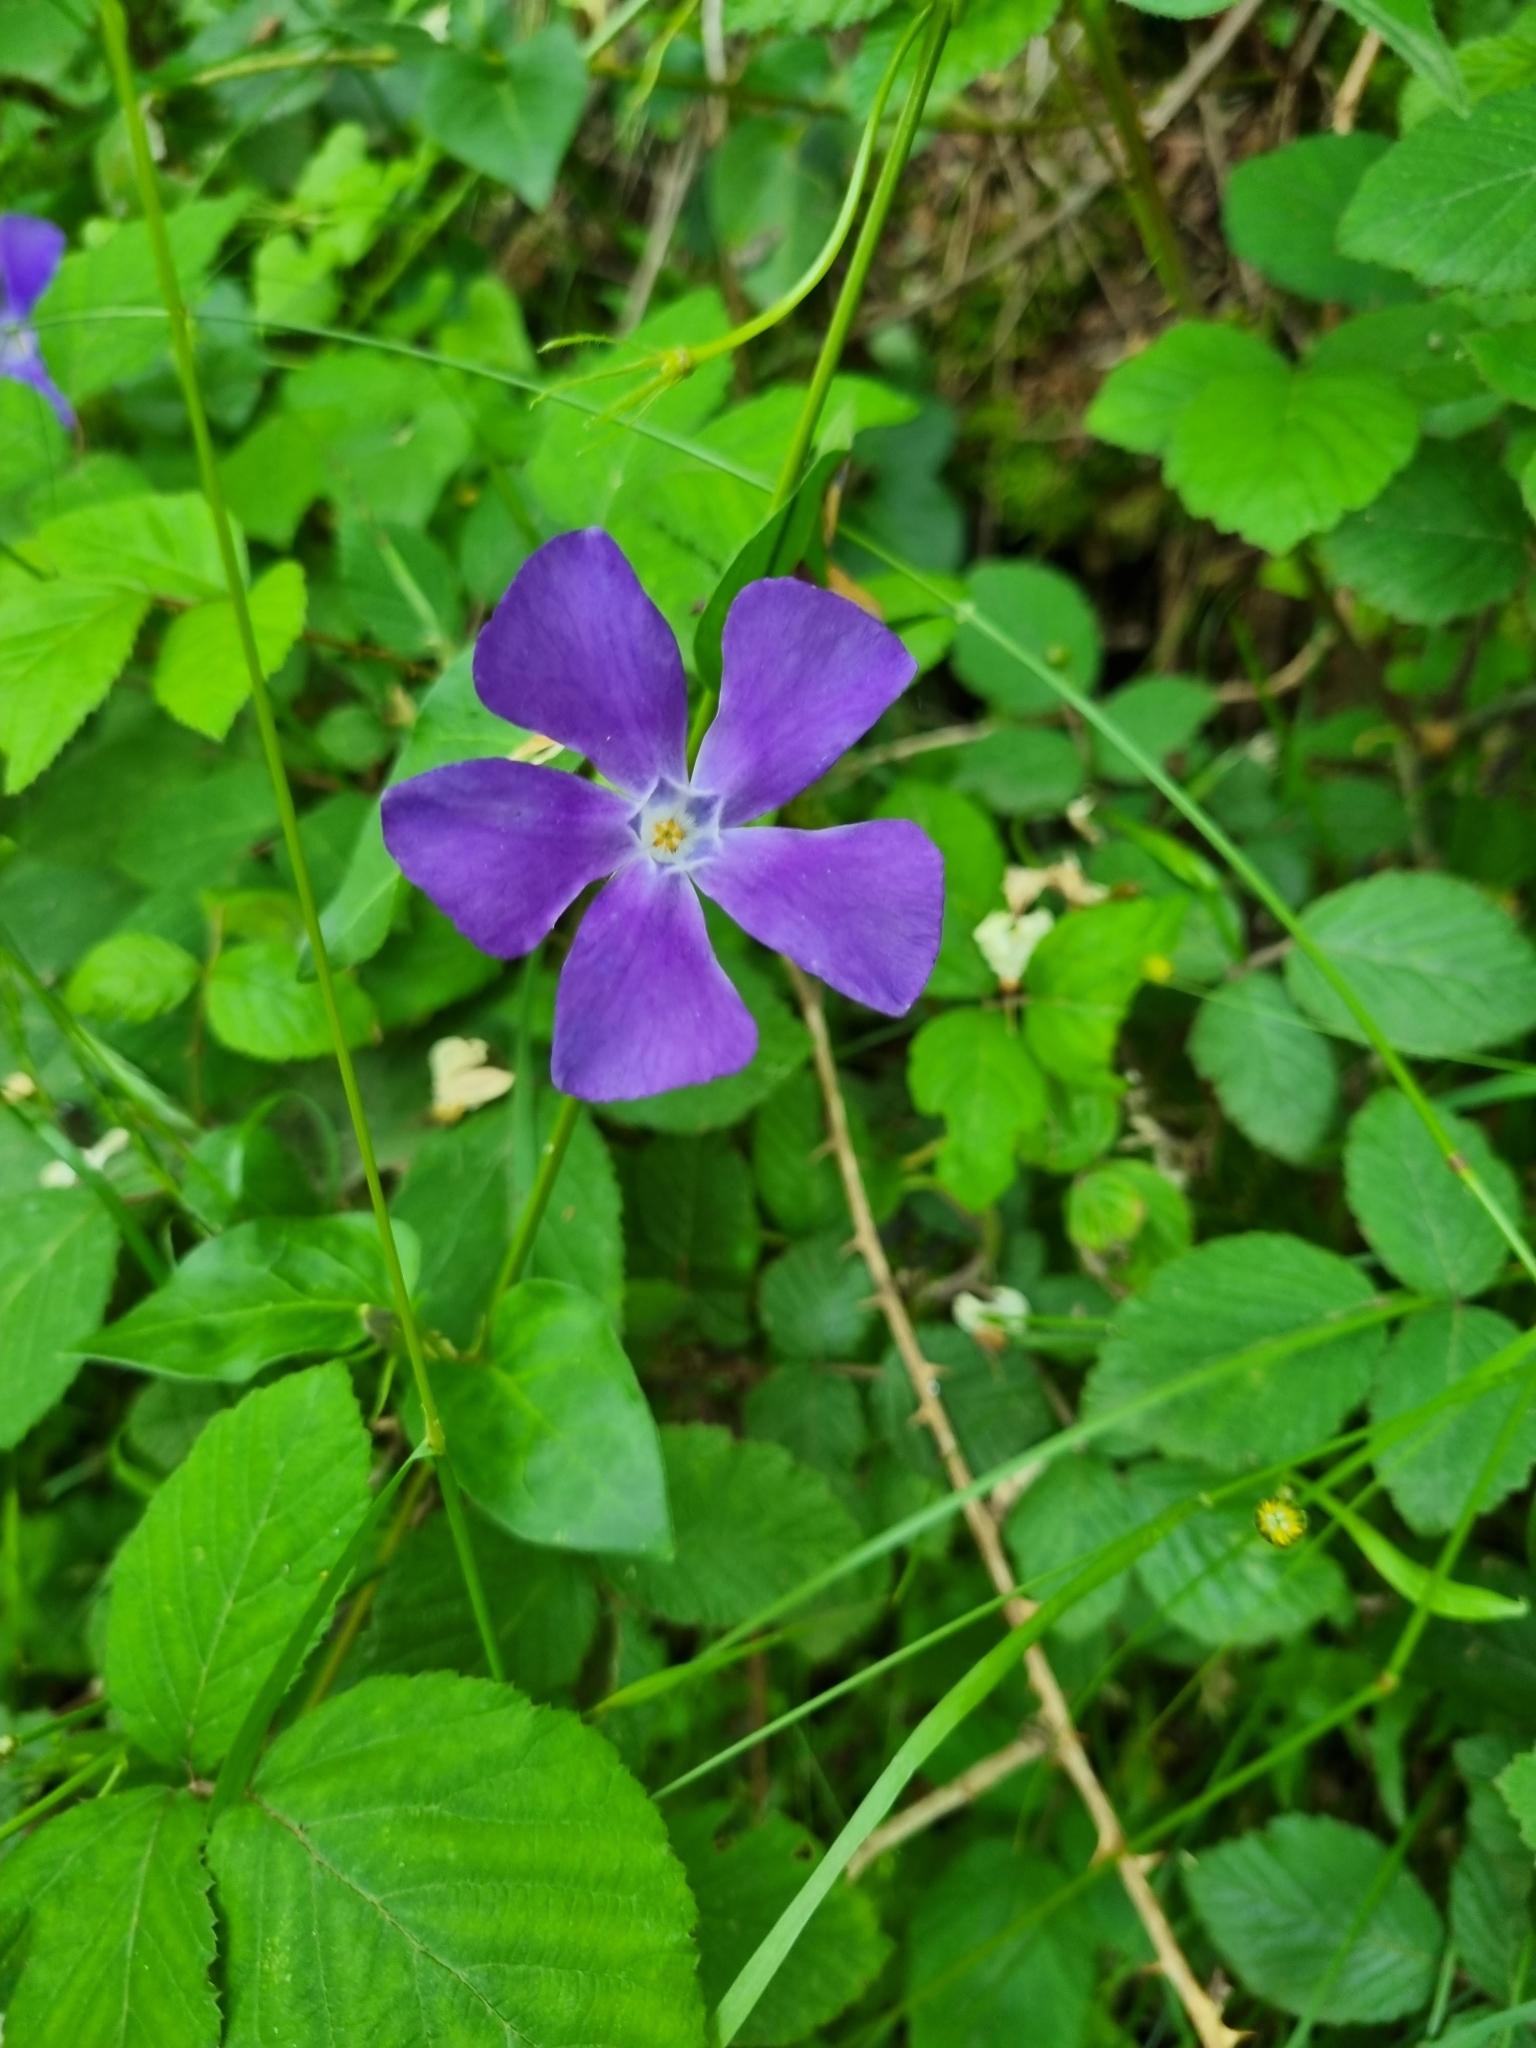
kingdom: Plantae
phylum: Tracheophyta
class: Magnoliopsida
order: Gentianales
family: Apocynaceae
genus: Vinca
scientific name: Vinca major
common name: Greater periwinkle
